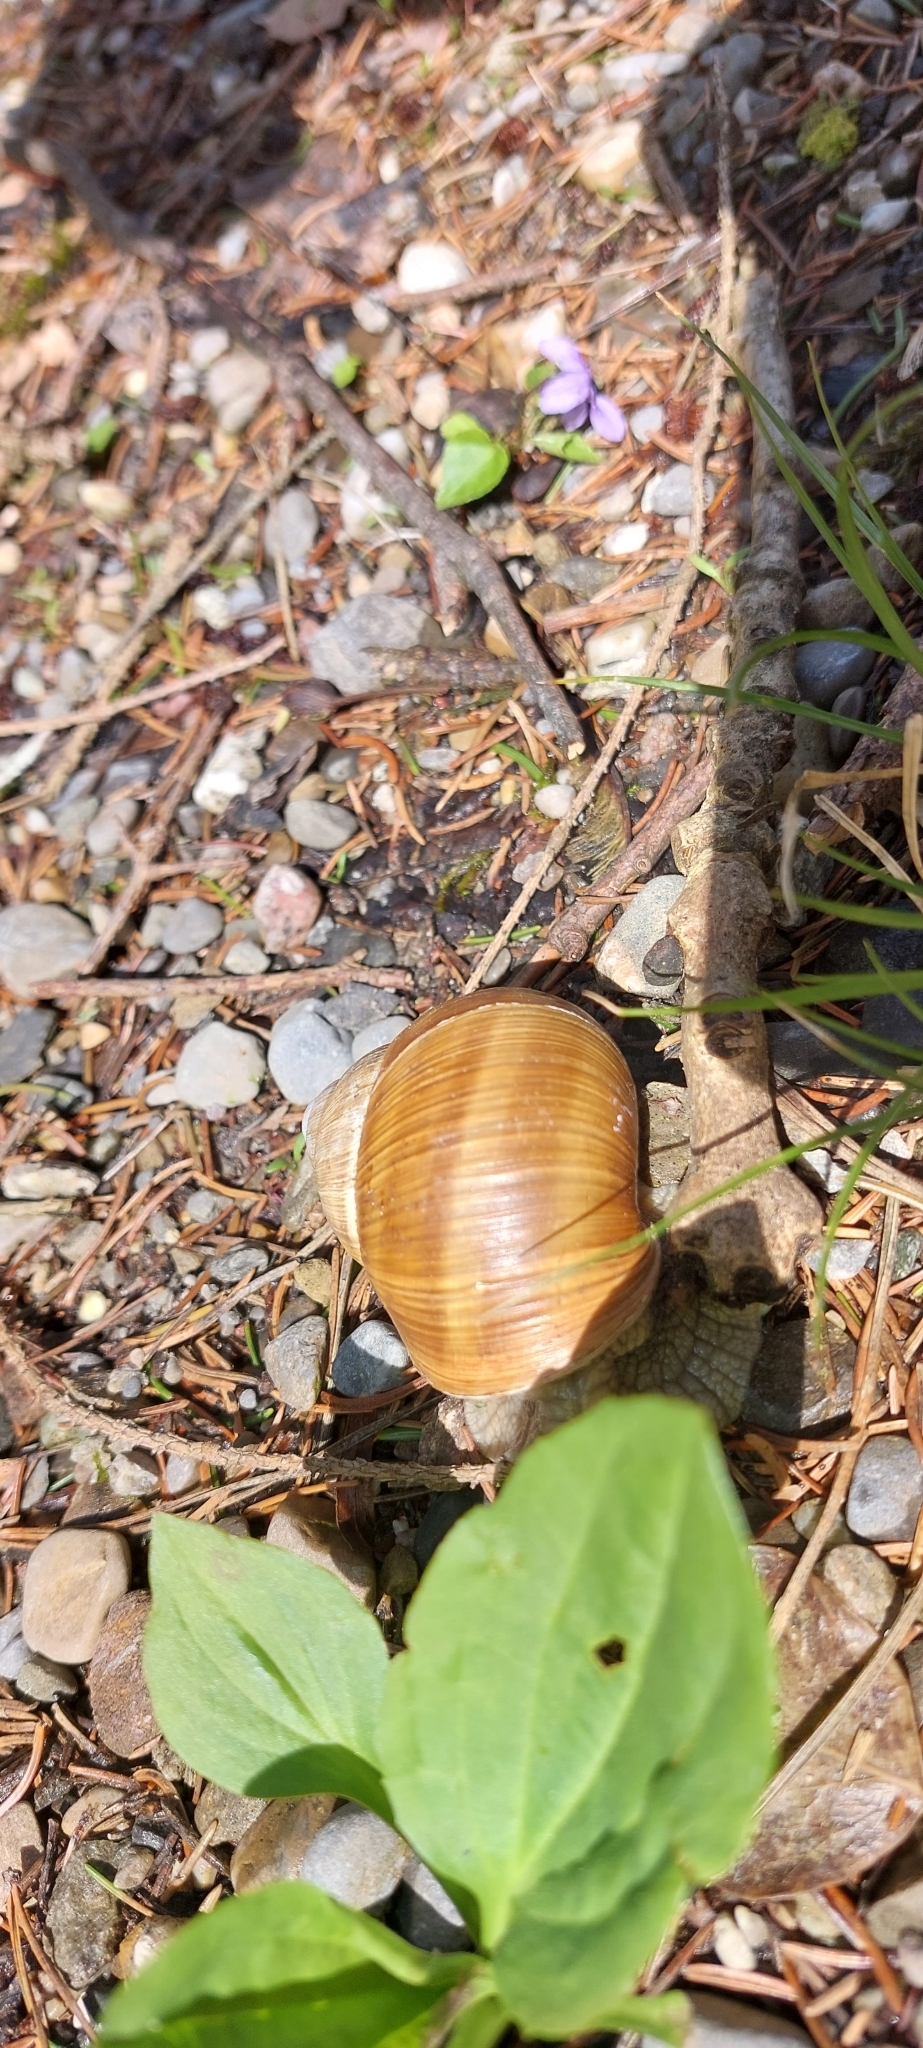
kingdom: Animalia
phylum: Mollusca
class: Gastropoda
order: Stylommatophora
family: Helicidae
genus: Helix
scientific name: Helix pomatia
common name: Roman snail
